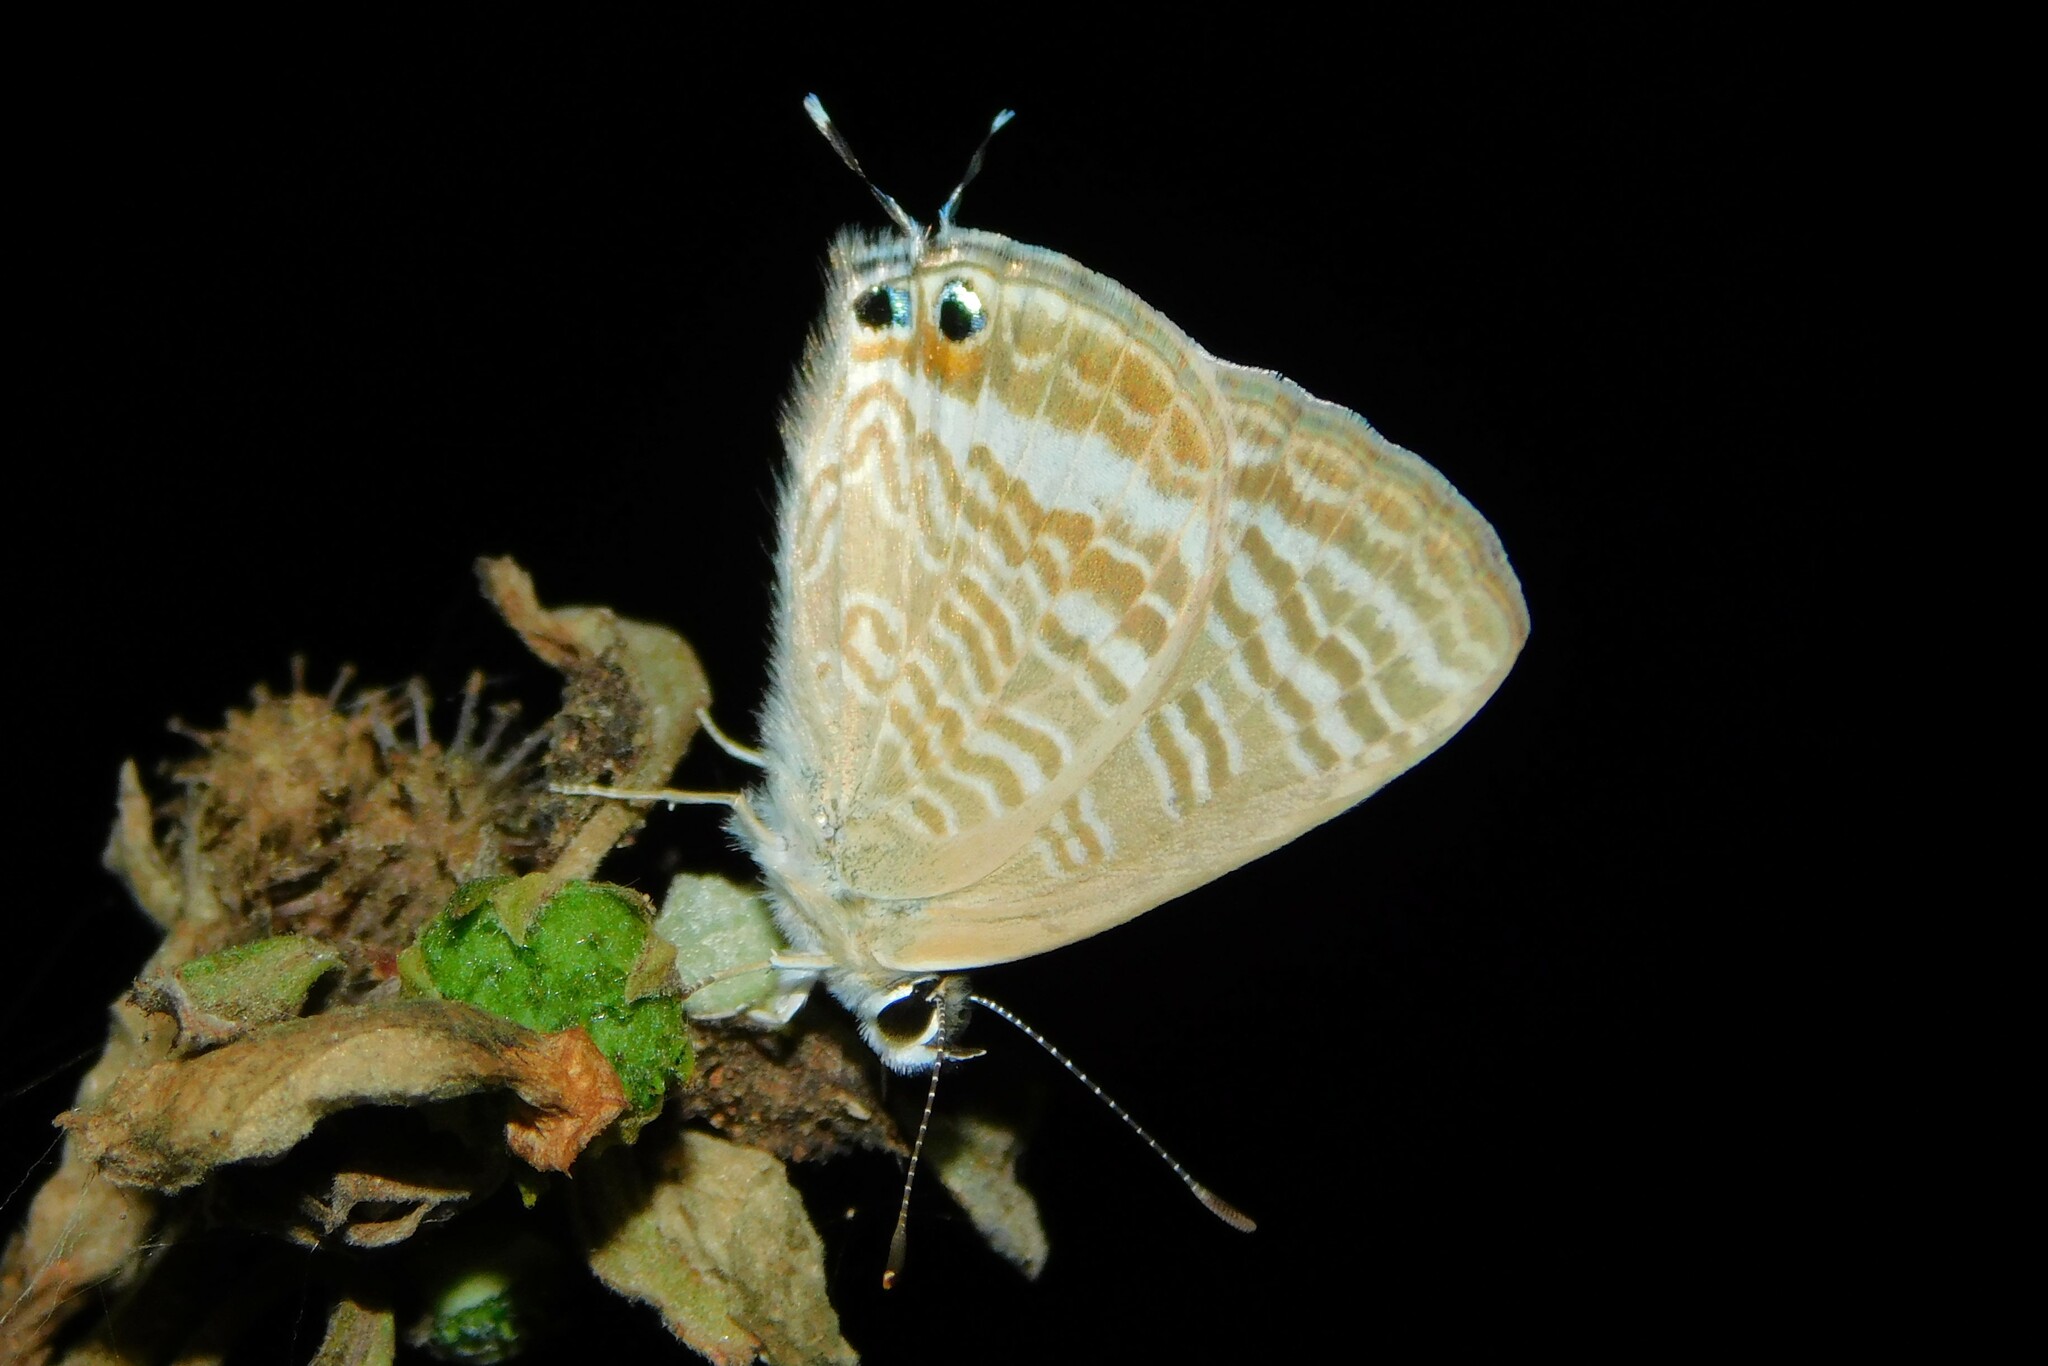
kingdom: Animalia
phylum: Arthropoda
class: Insecta
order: Lepidoptera
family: Lycaenidae
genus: Lampides
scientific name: Lampides boeticus
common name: Long-tailed blue
